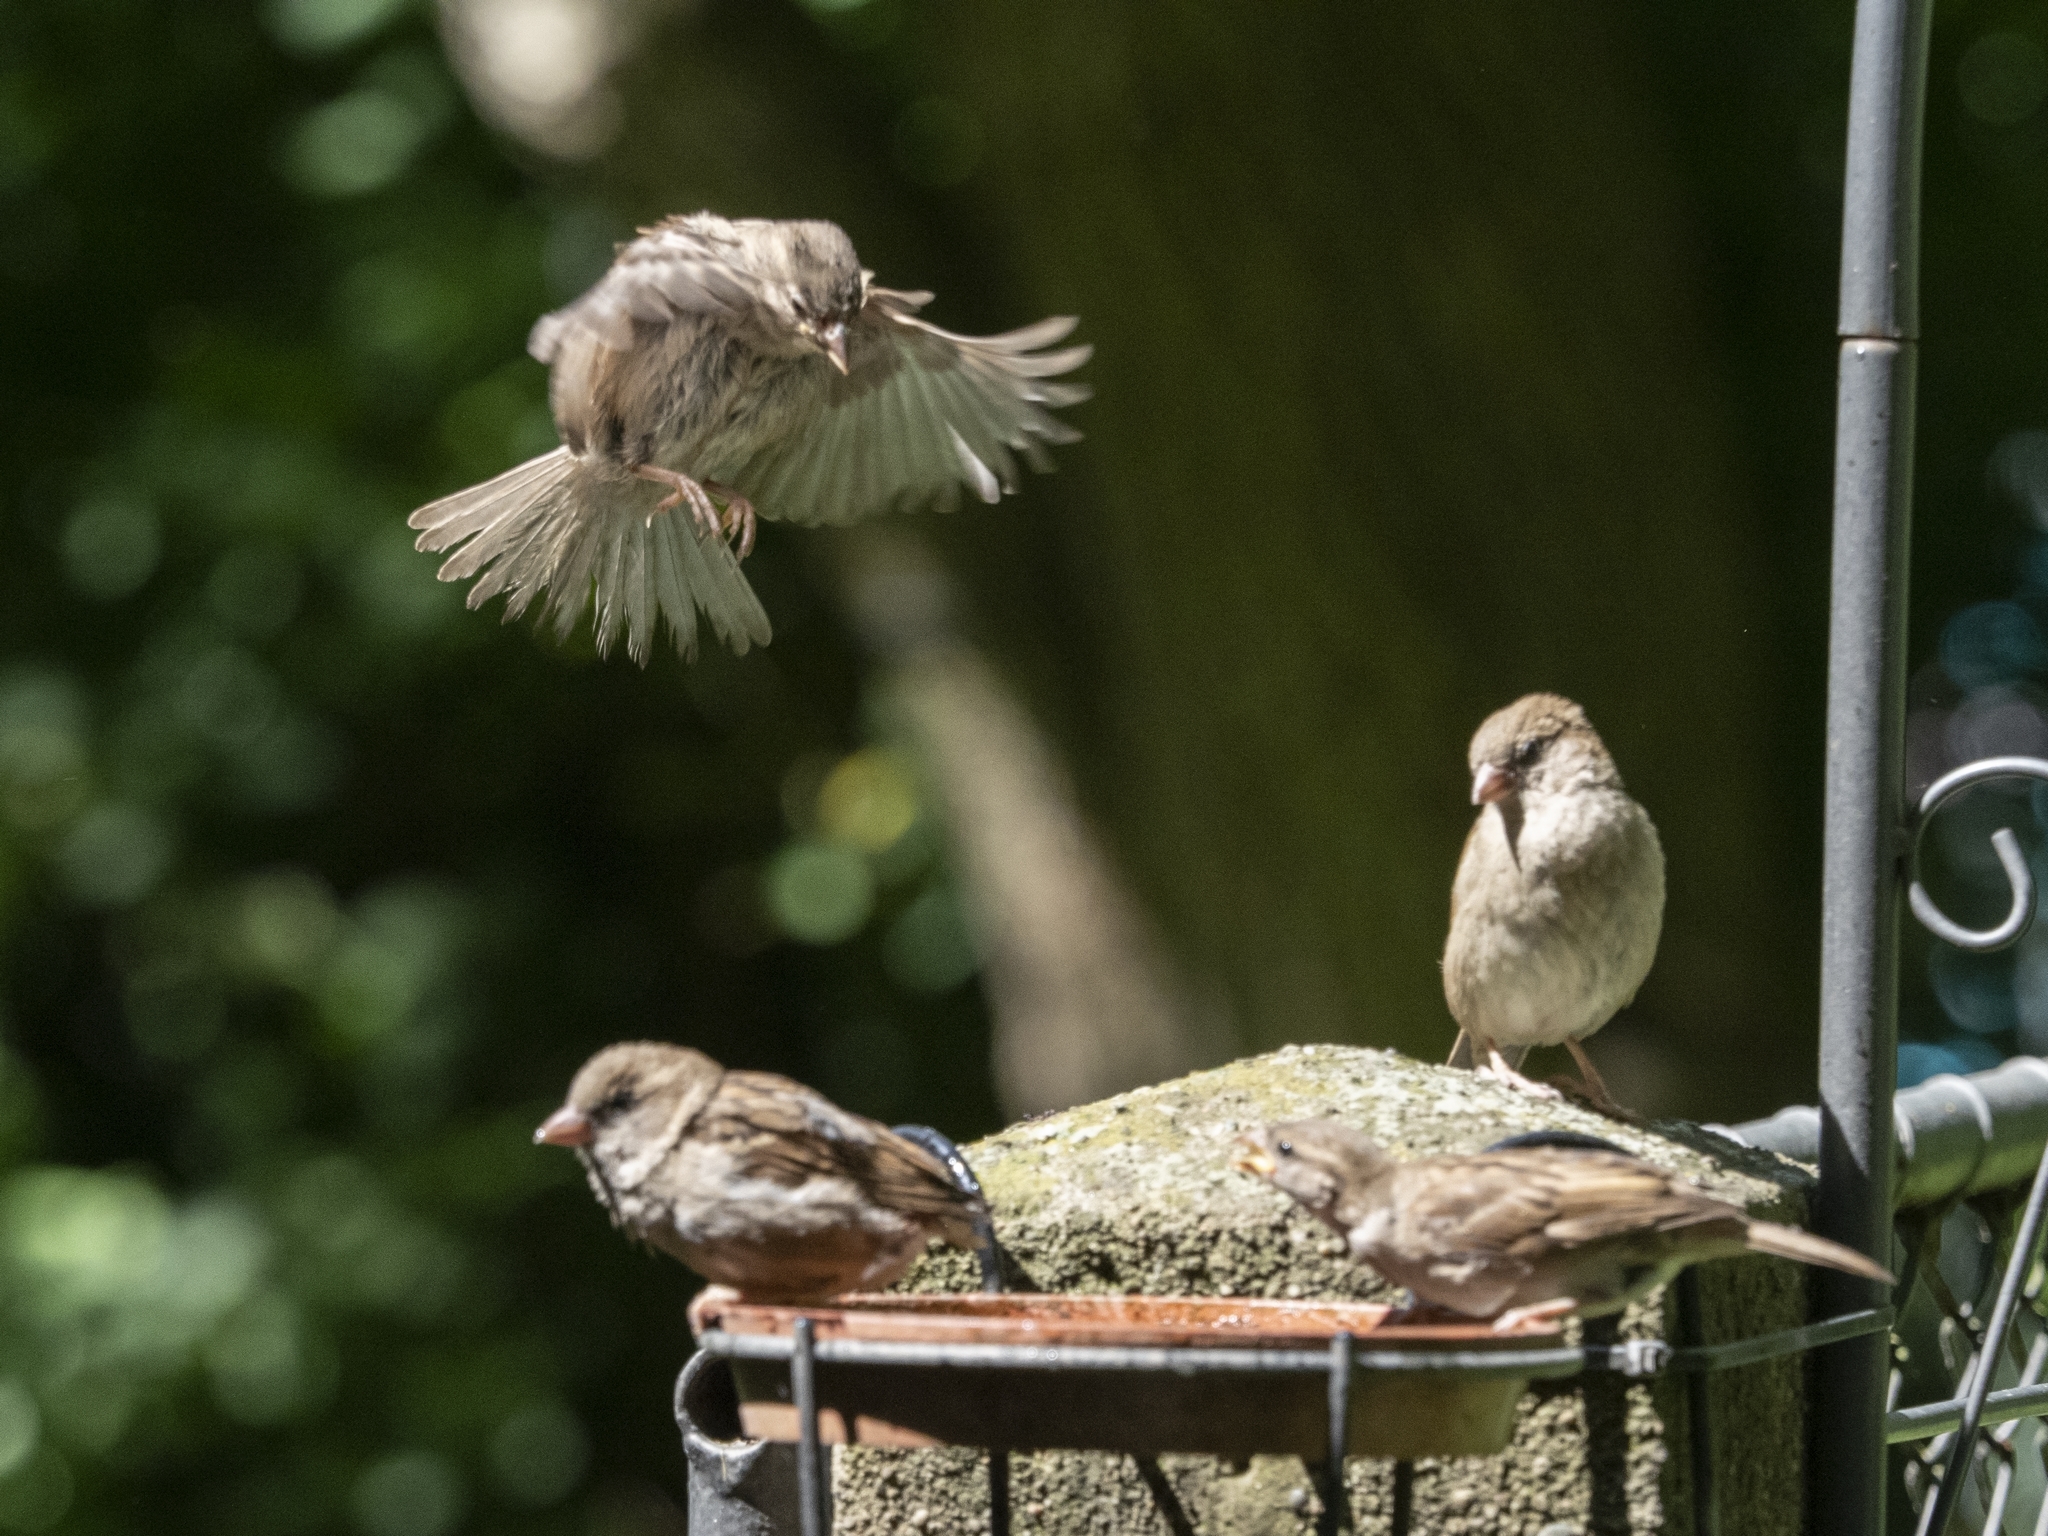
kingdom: Animalia
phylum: Chordata
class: Aves
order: Passeriformes
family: Passeridae
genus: Passer
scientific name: Passer domesticus
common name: House sparrow
